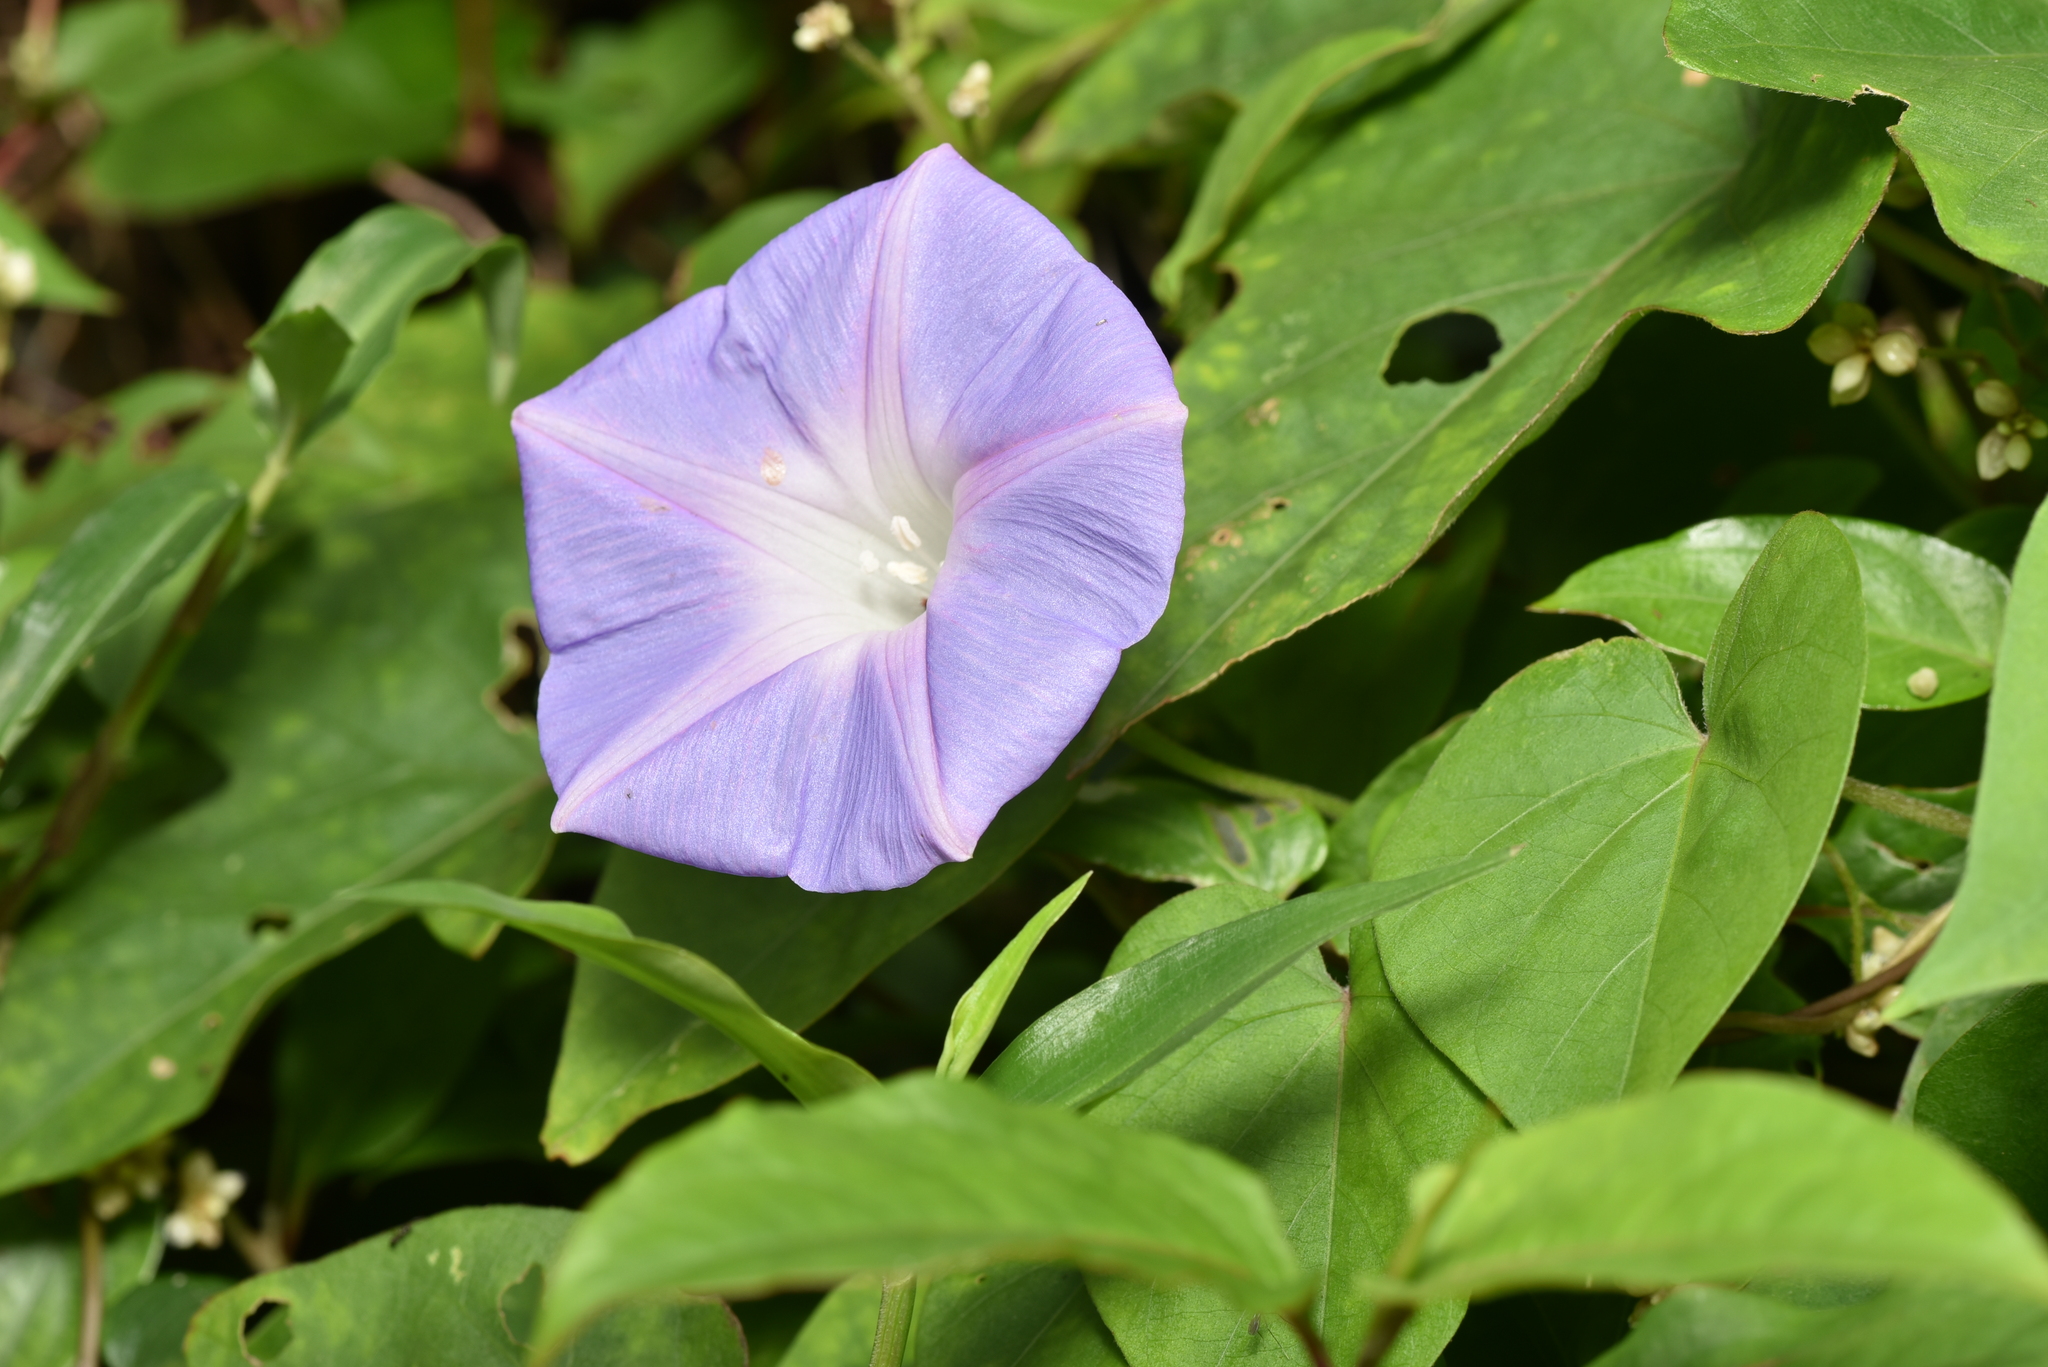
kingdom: Plantae
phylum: Tracheophyta
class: Magnoliopsida
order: Solanales
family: Convolvulaceae
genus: Ipomoea
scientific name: Ipomoea indica
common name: Blue dawnflower
